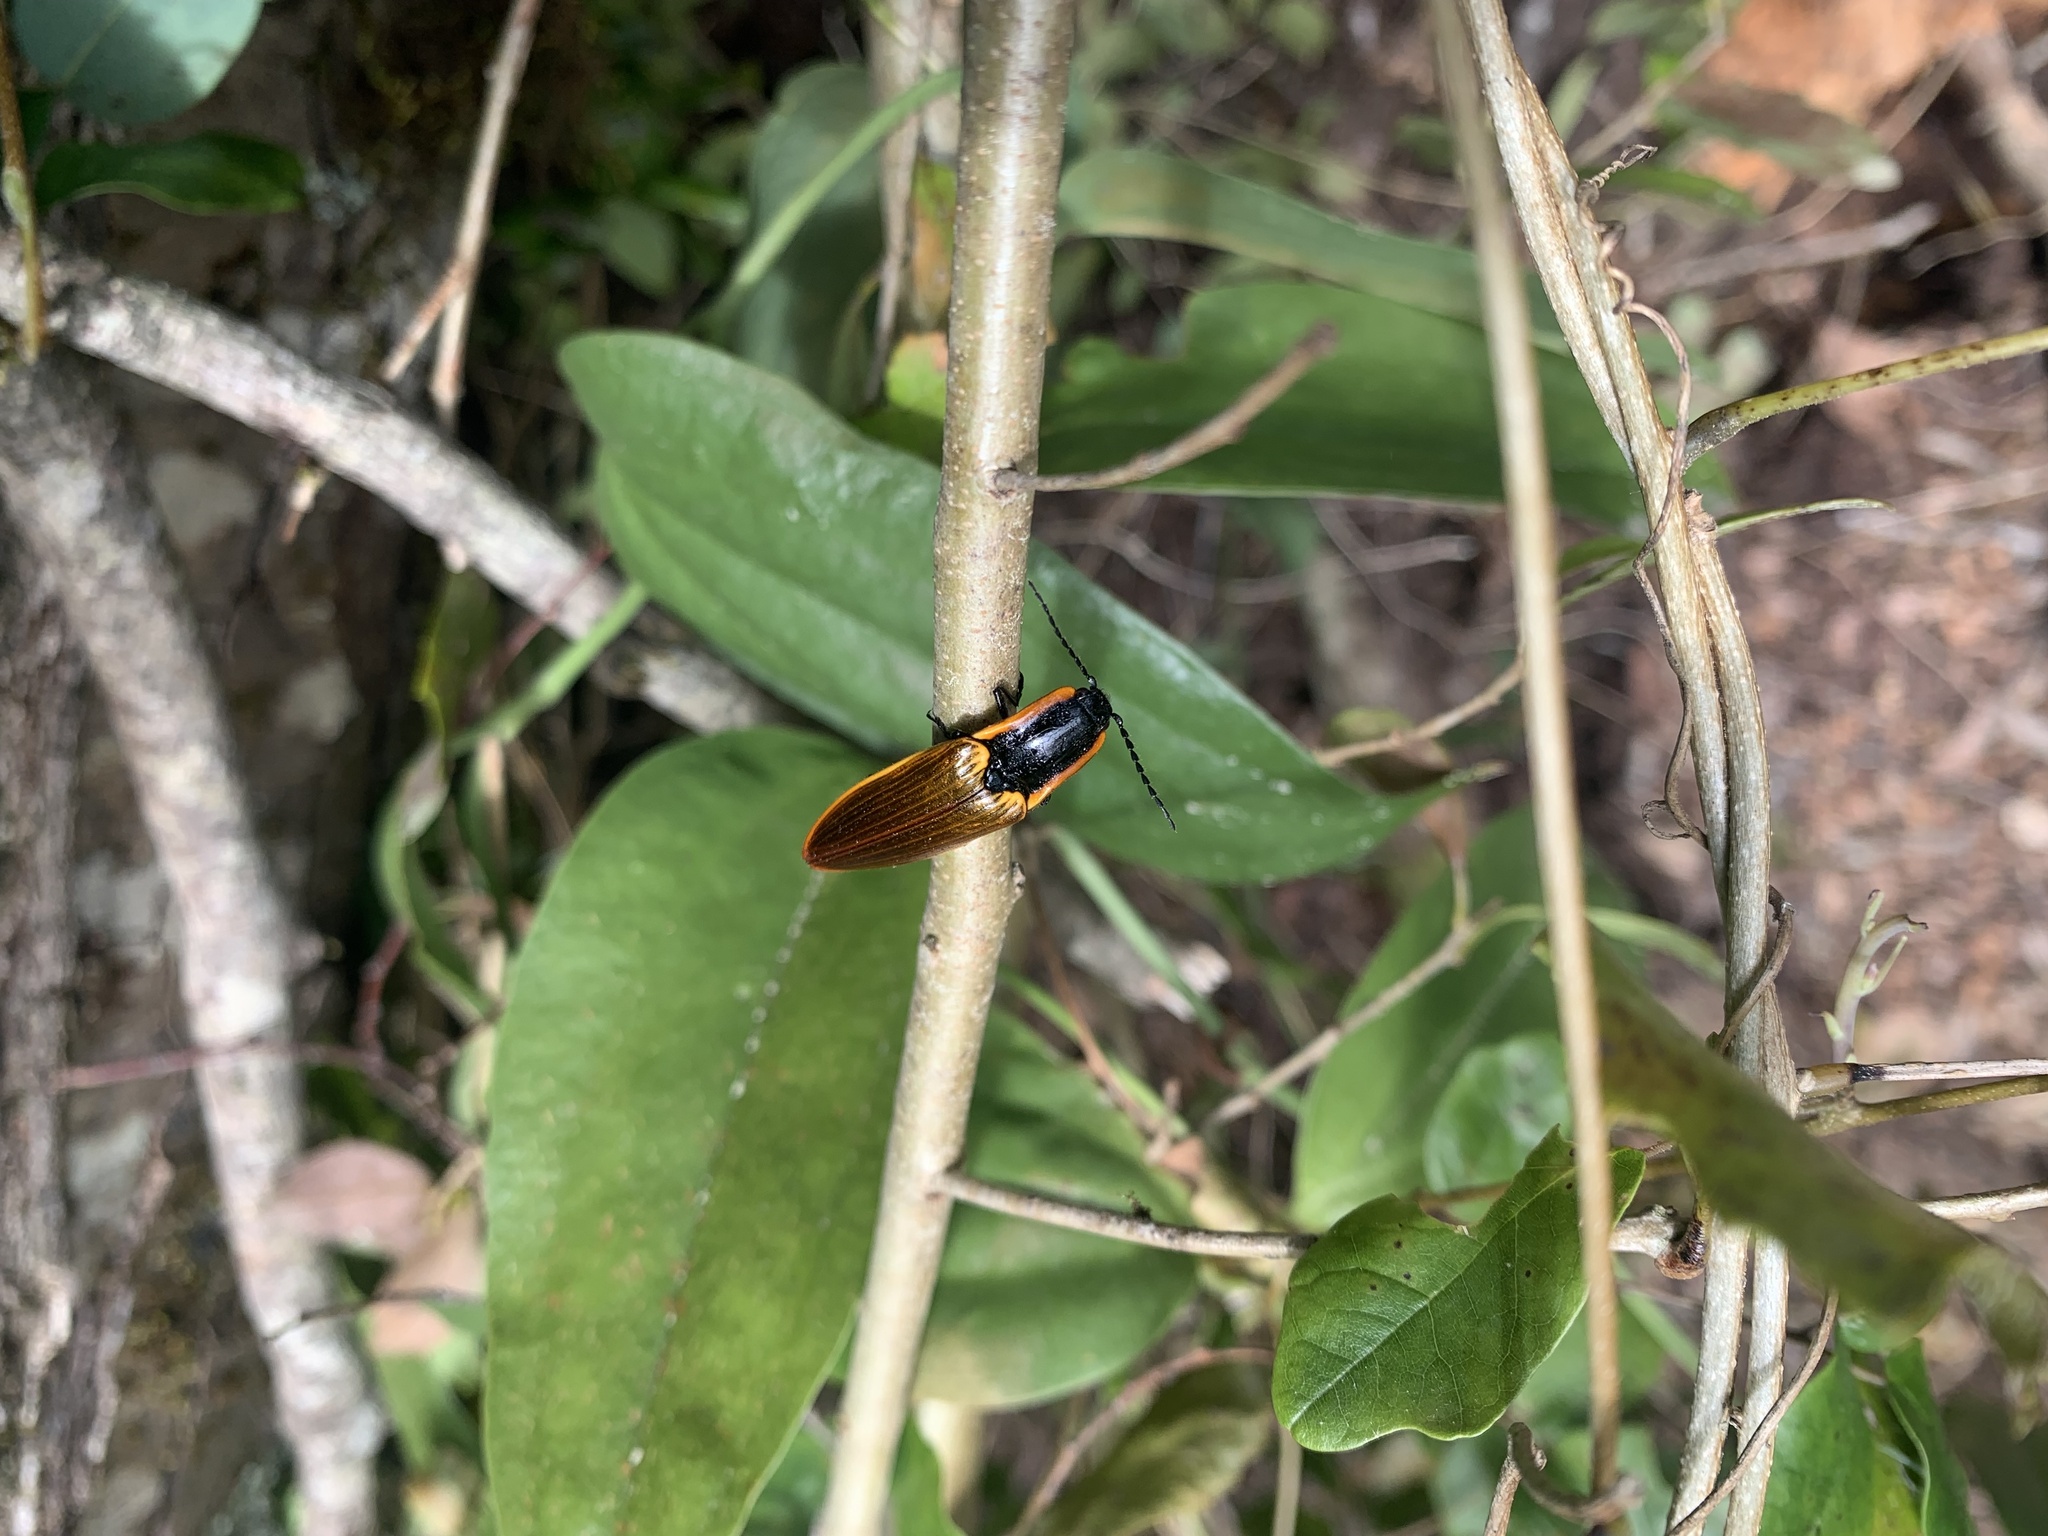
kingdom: Animalia
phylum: Arthropoda
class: Insecta
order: Coleoptera
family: Elateridae
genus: Semiotus
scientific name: Semiotus
